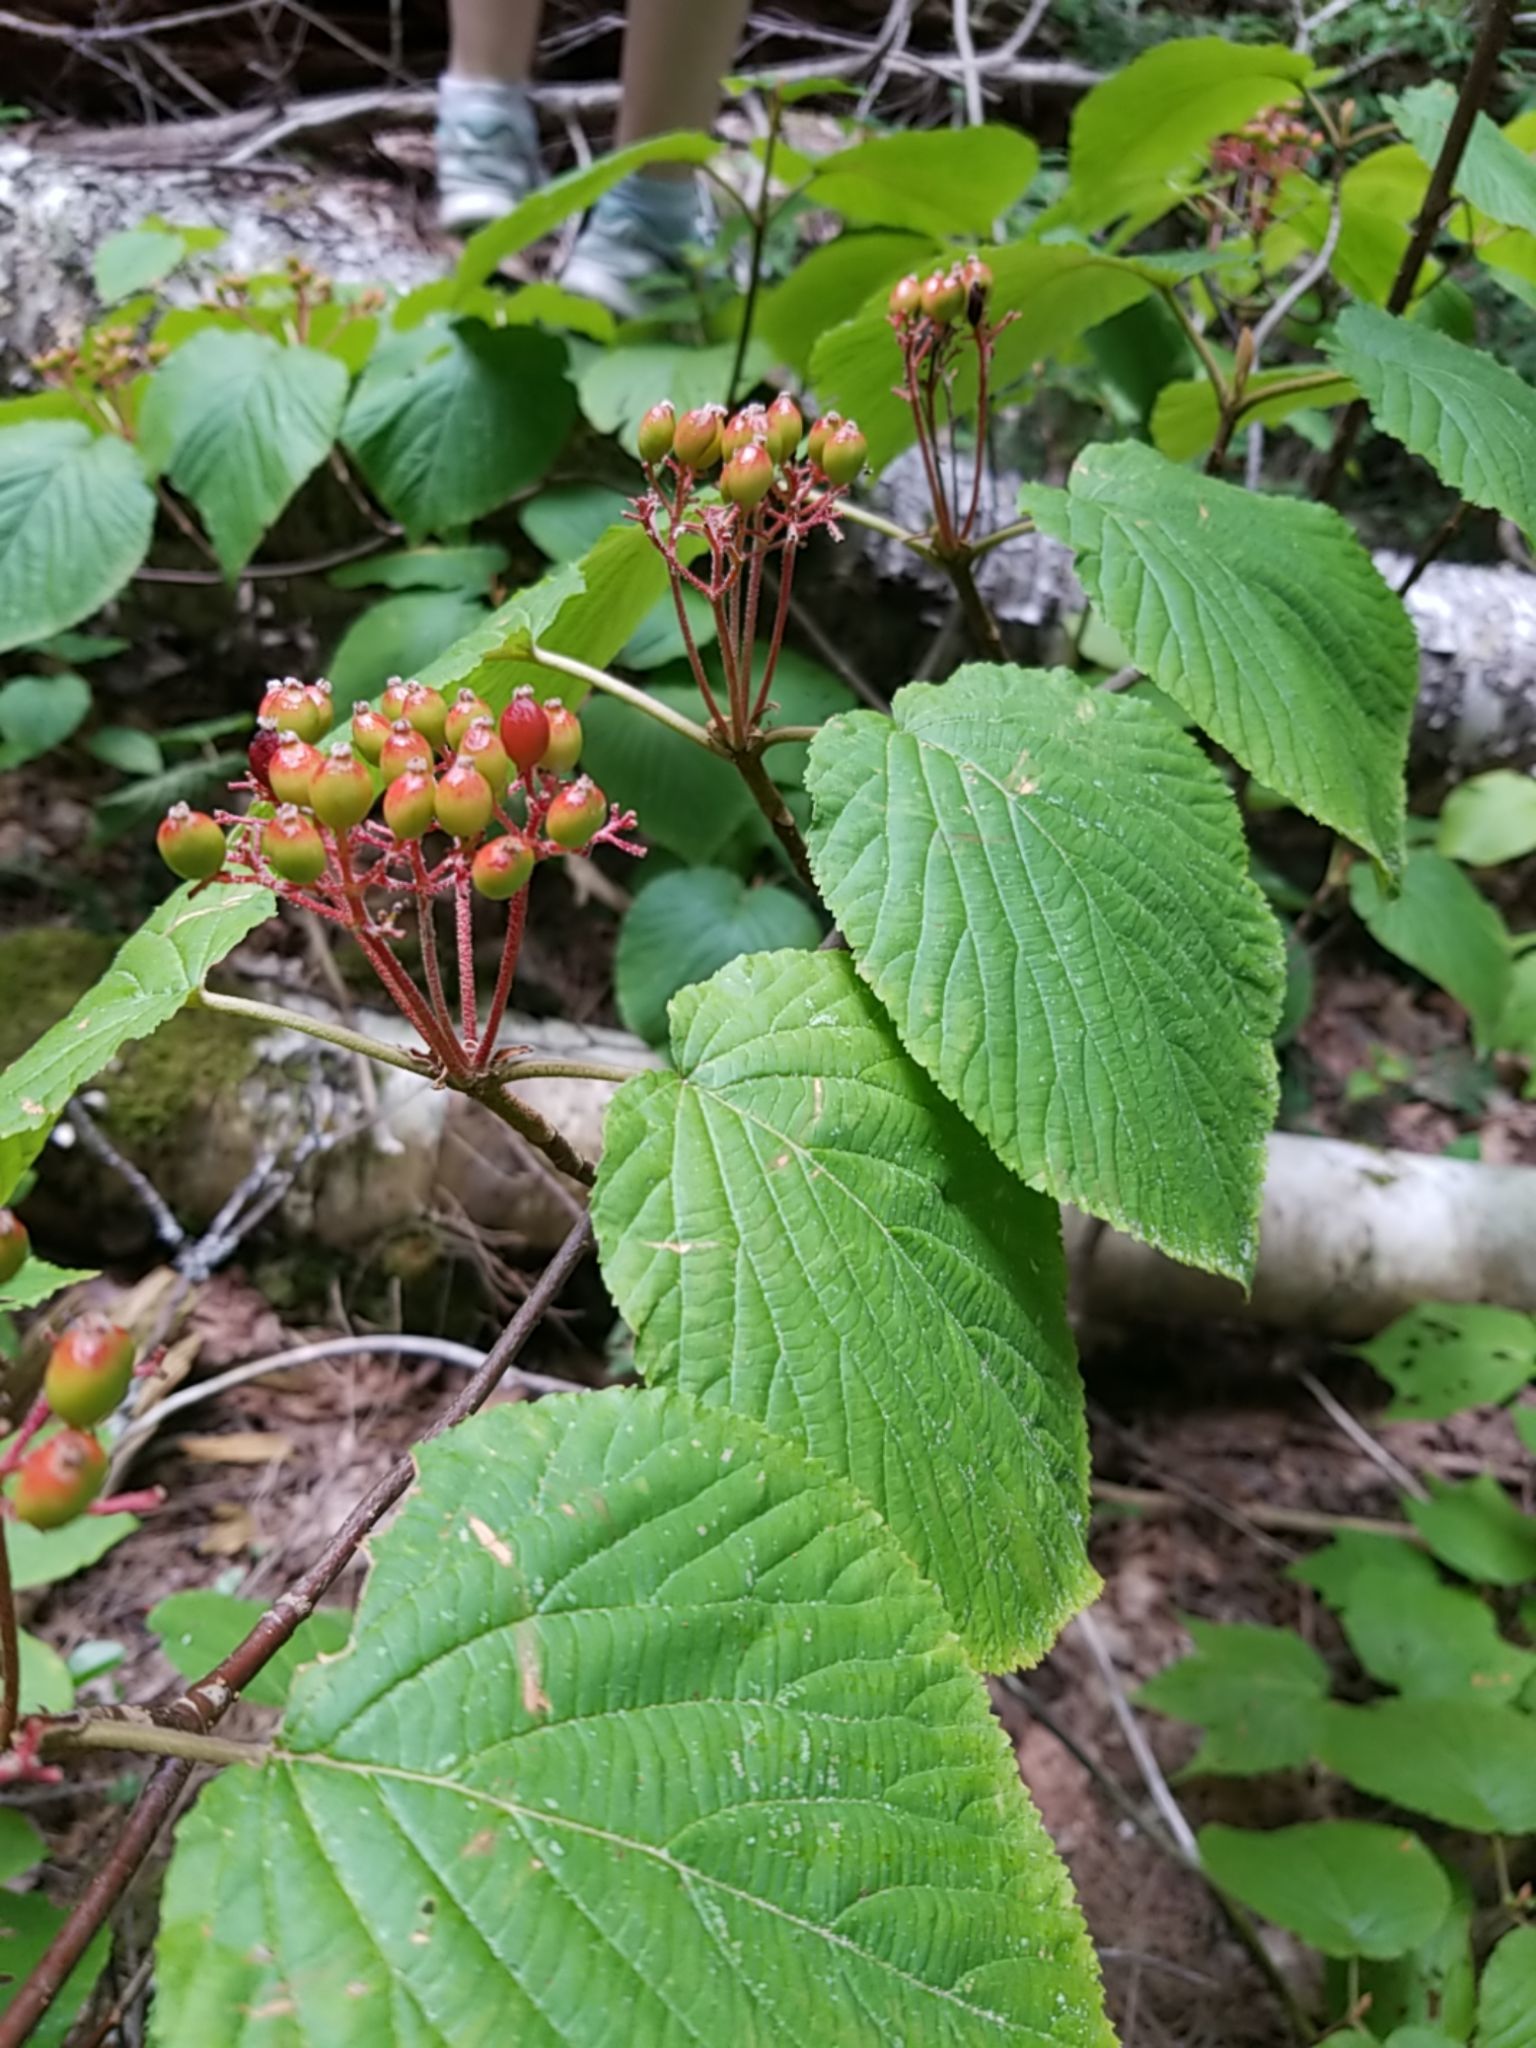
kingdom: Plantae
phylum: Tracheophyta
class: Magnoliopsida
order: Dipsacales
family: Viburnaceae
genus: Viburnum
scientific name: Viburnum lantanoides
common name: Hobblebush
